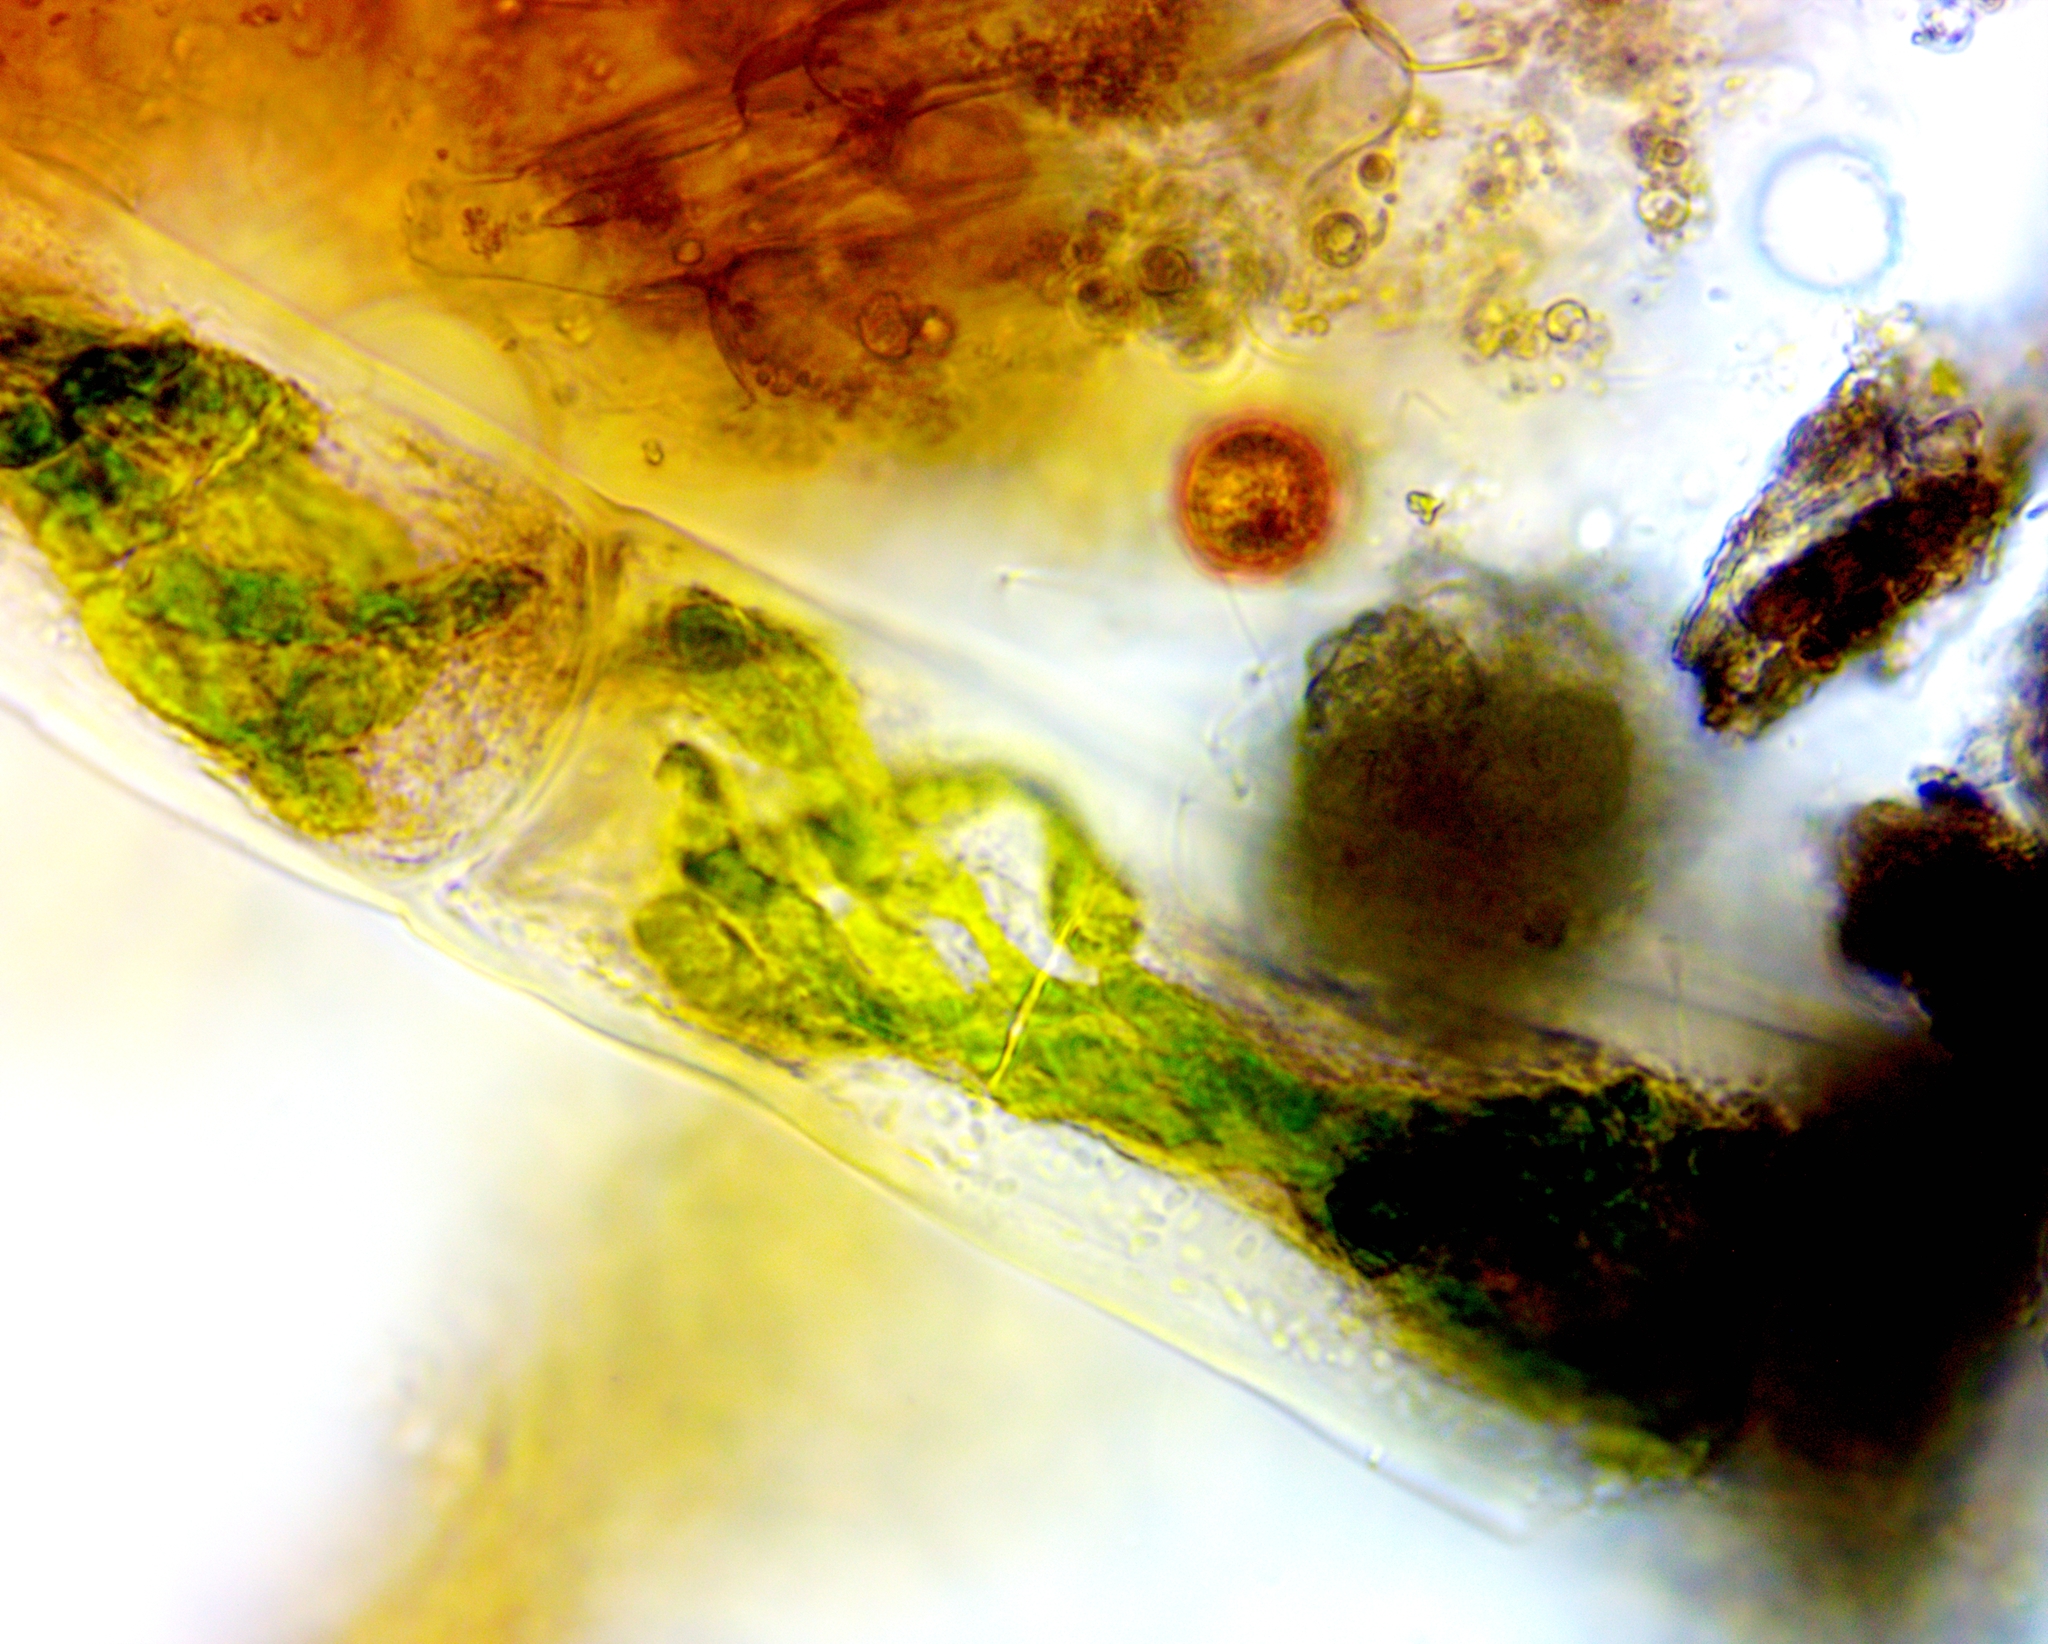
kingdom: Plantae
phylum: Charophyta
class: Zygnematophyceae
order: Zygnematales
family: Zygnemataceae
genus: Spirogyra
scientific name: Spirogyra
